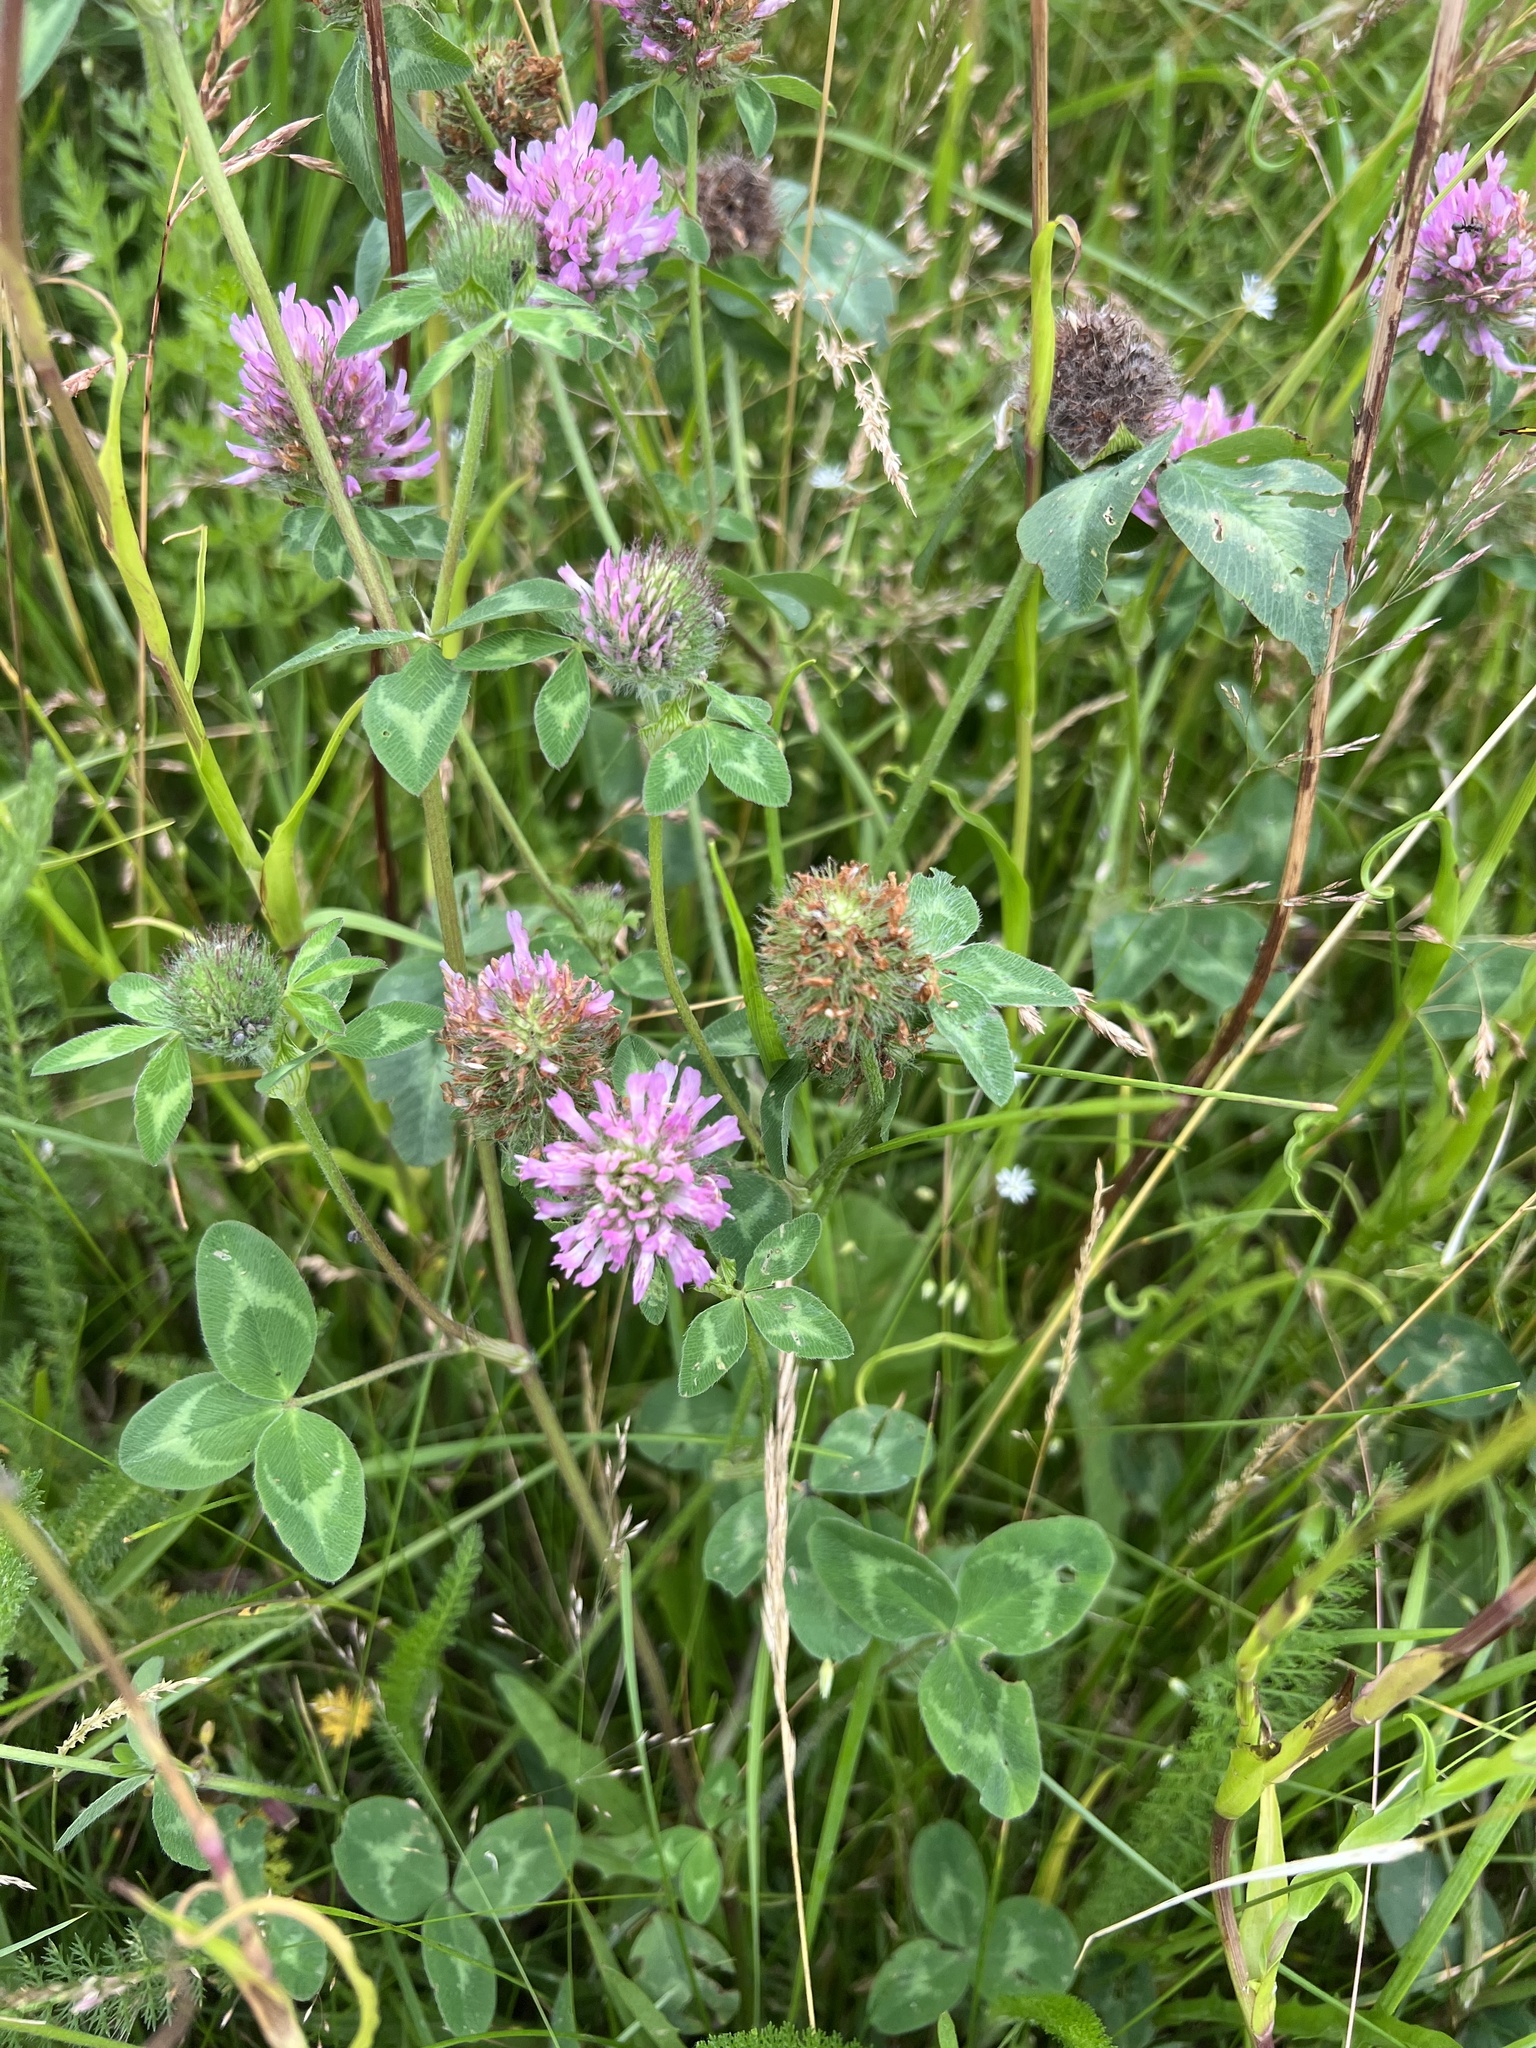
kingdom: Plantae
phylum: Tracheophyta
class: Magnoliopsida
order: Fabales
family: Fabaceae
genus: Trifolium
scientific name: Trifolium pratense
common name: Red clover
